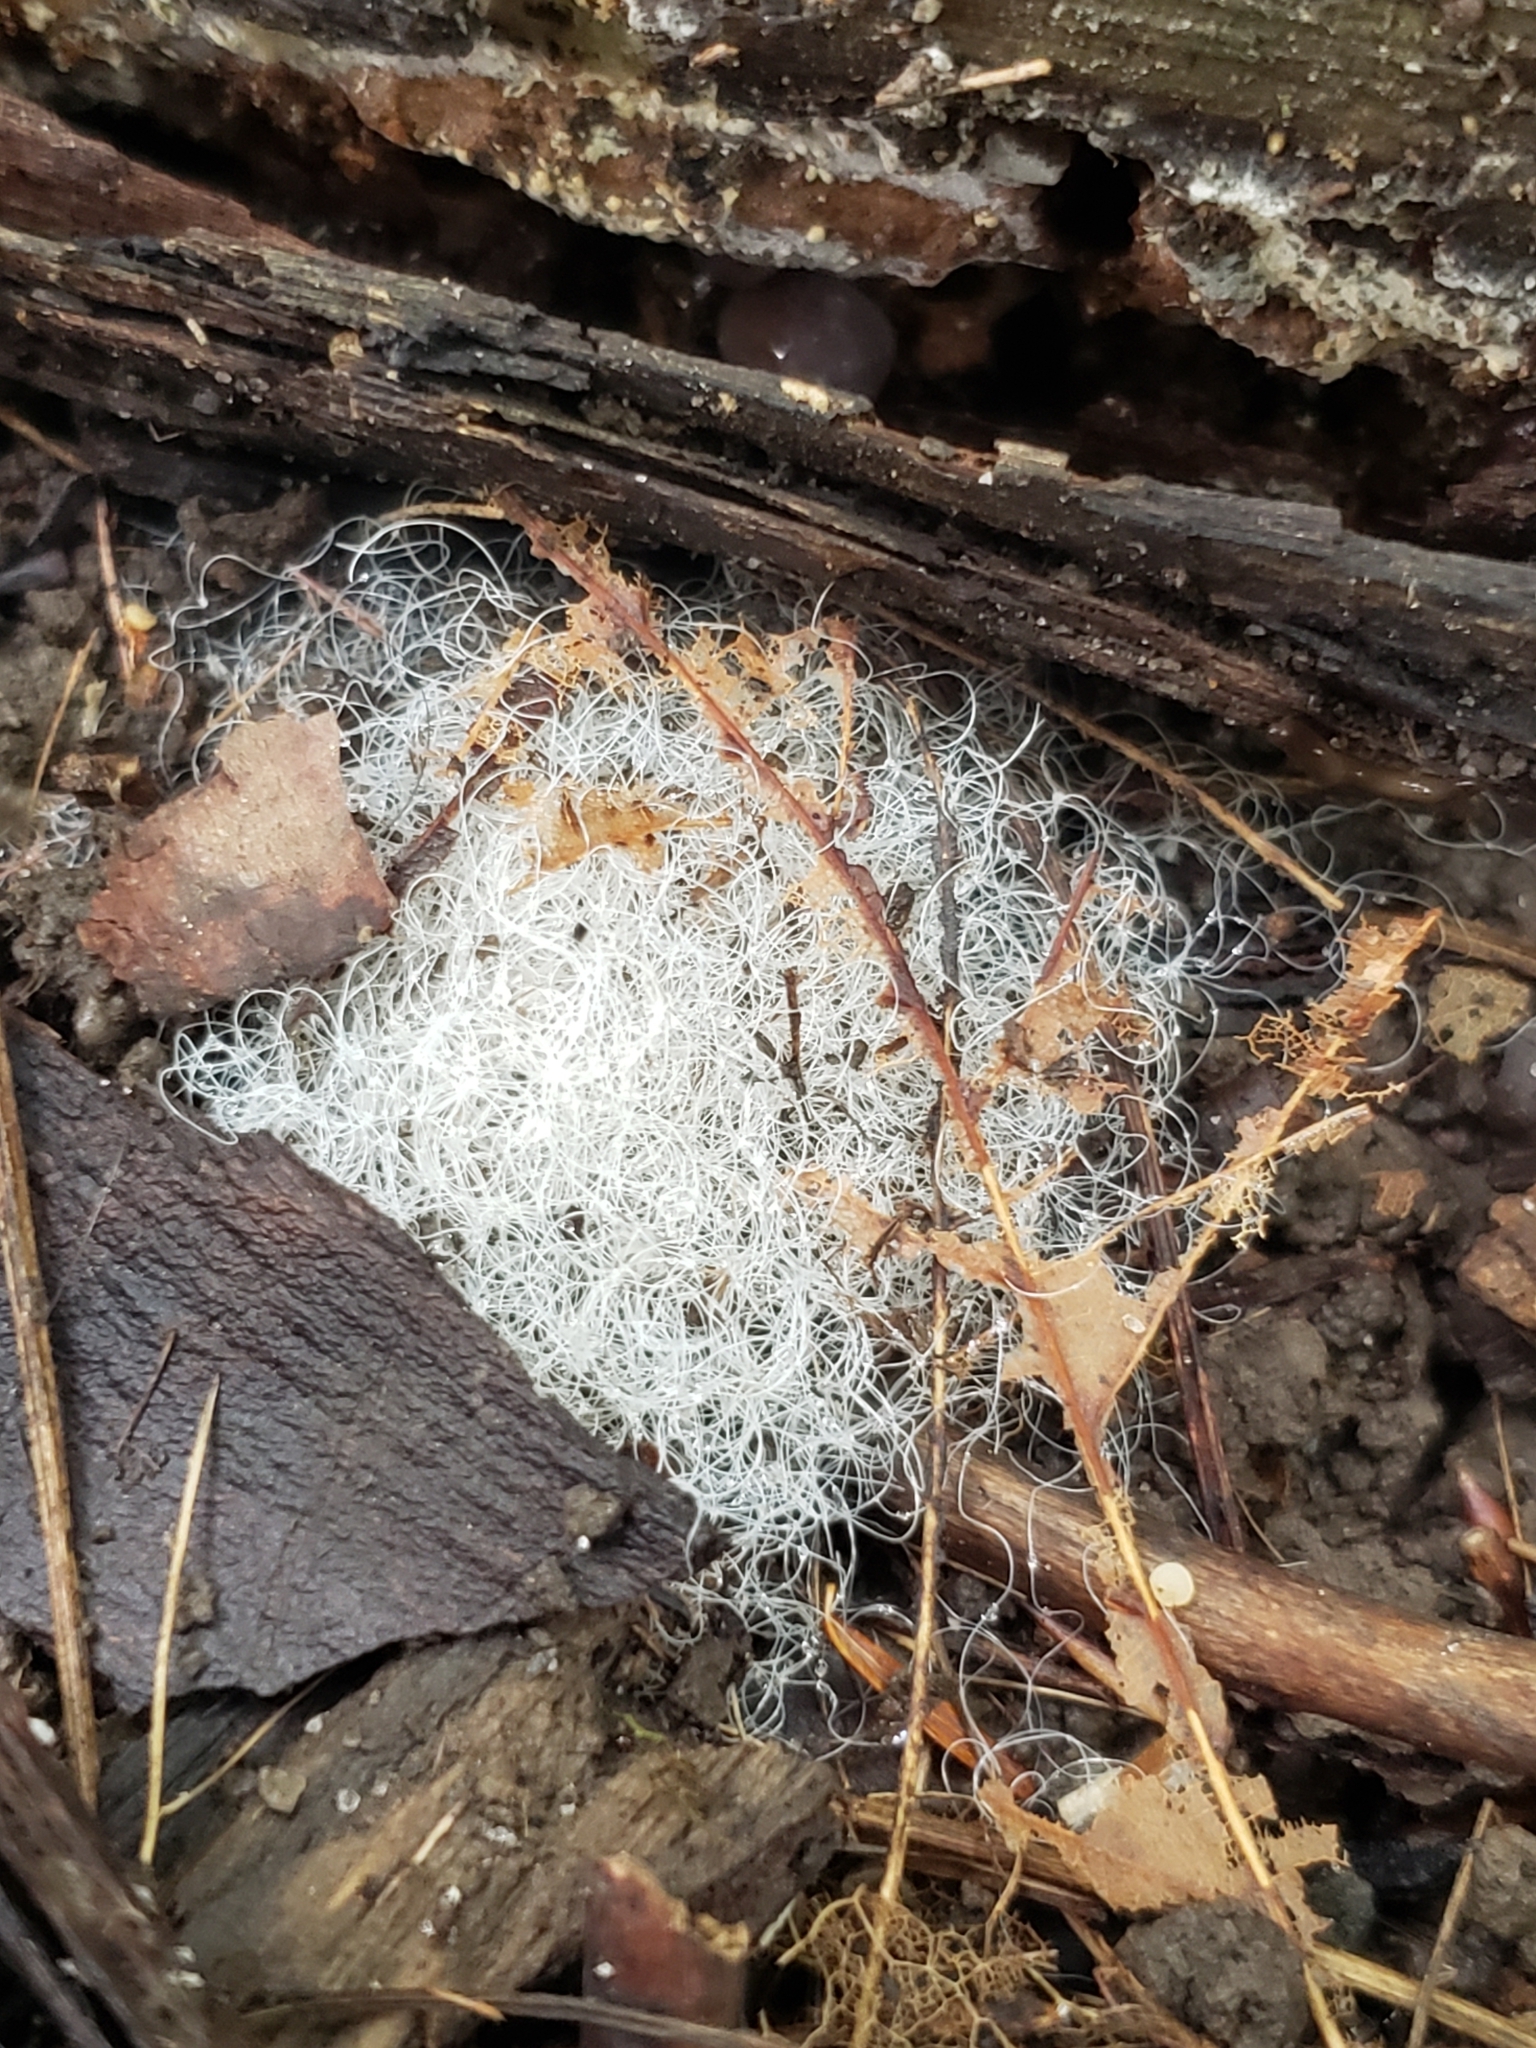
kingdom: Fungi
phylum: Mucoromycota
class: Mucoromycetes
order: Mucorales
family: Rhizopodaceae
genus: Syzygites
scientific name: Syzygites megalocarpus
